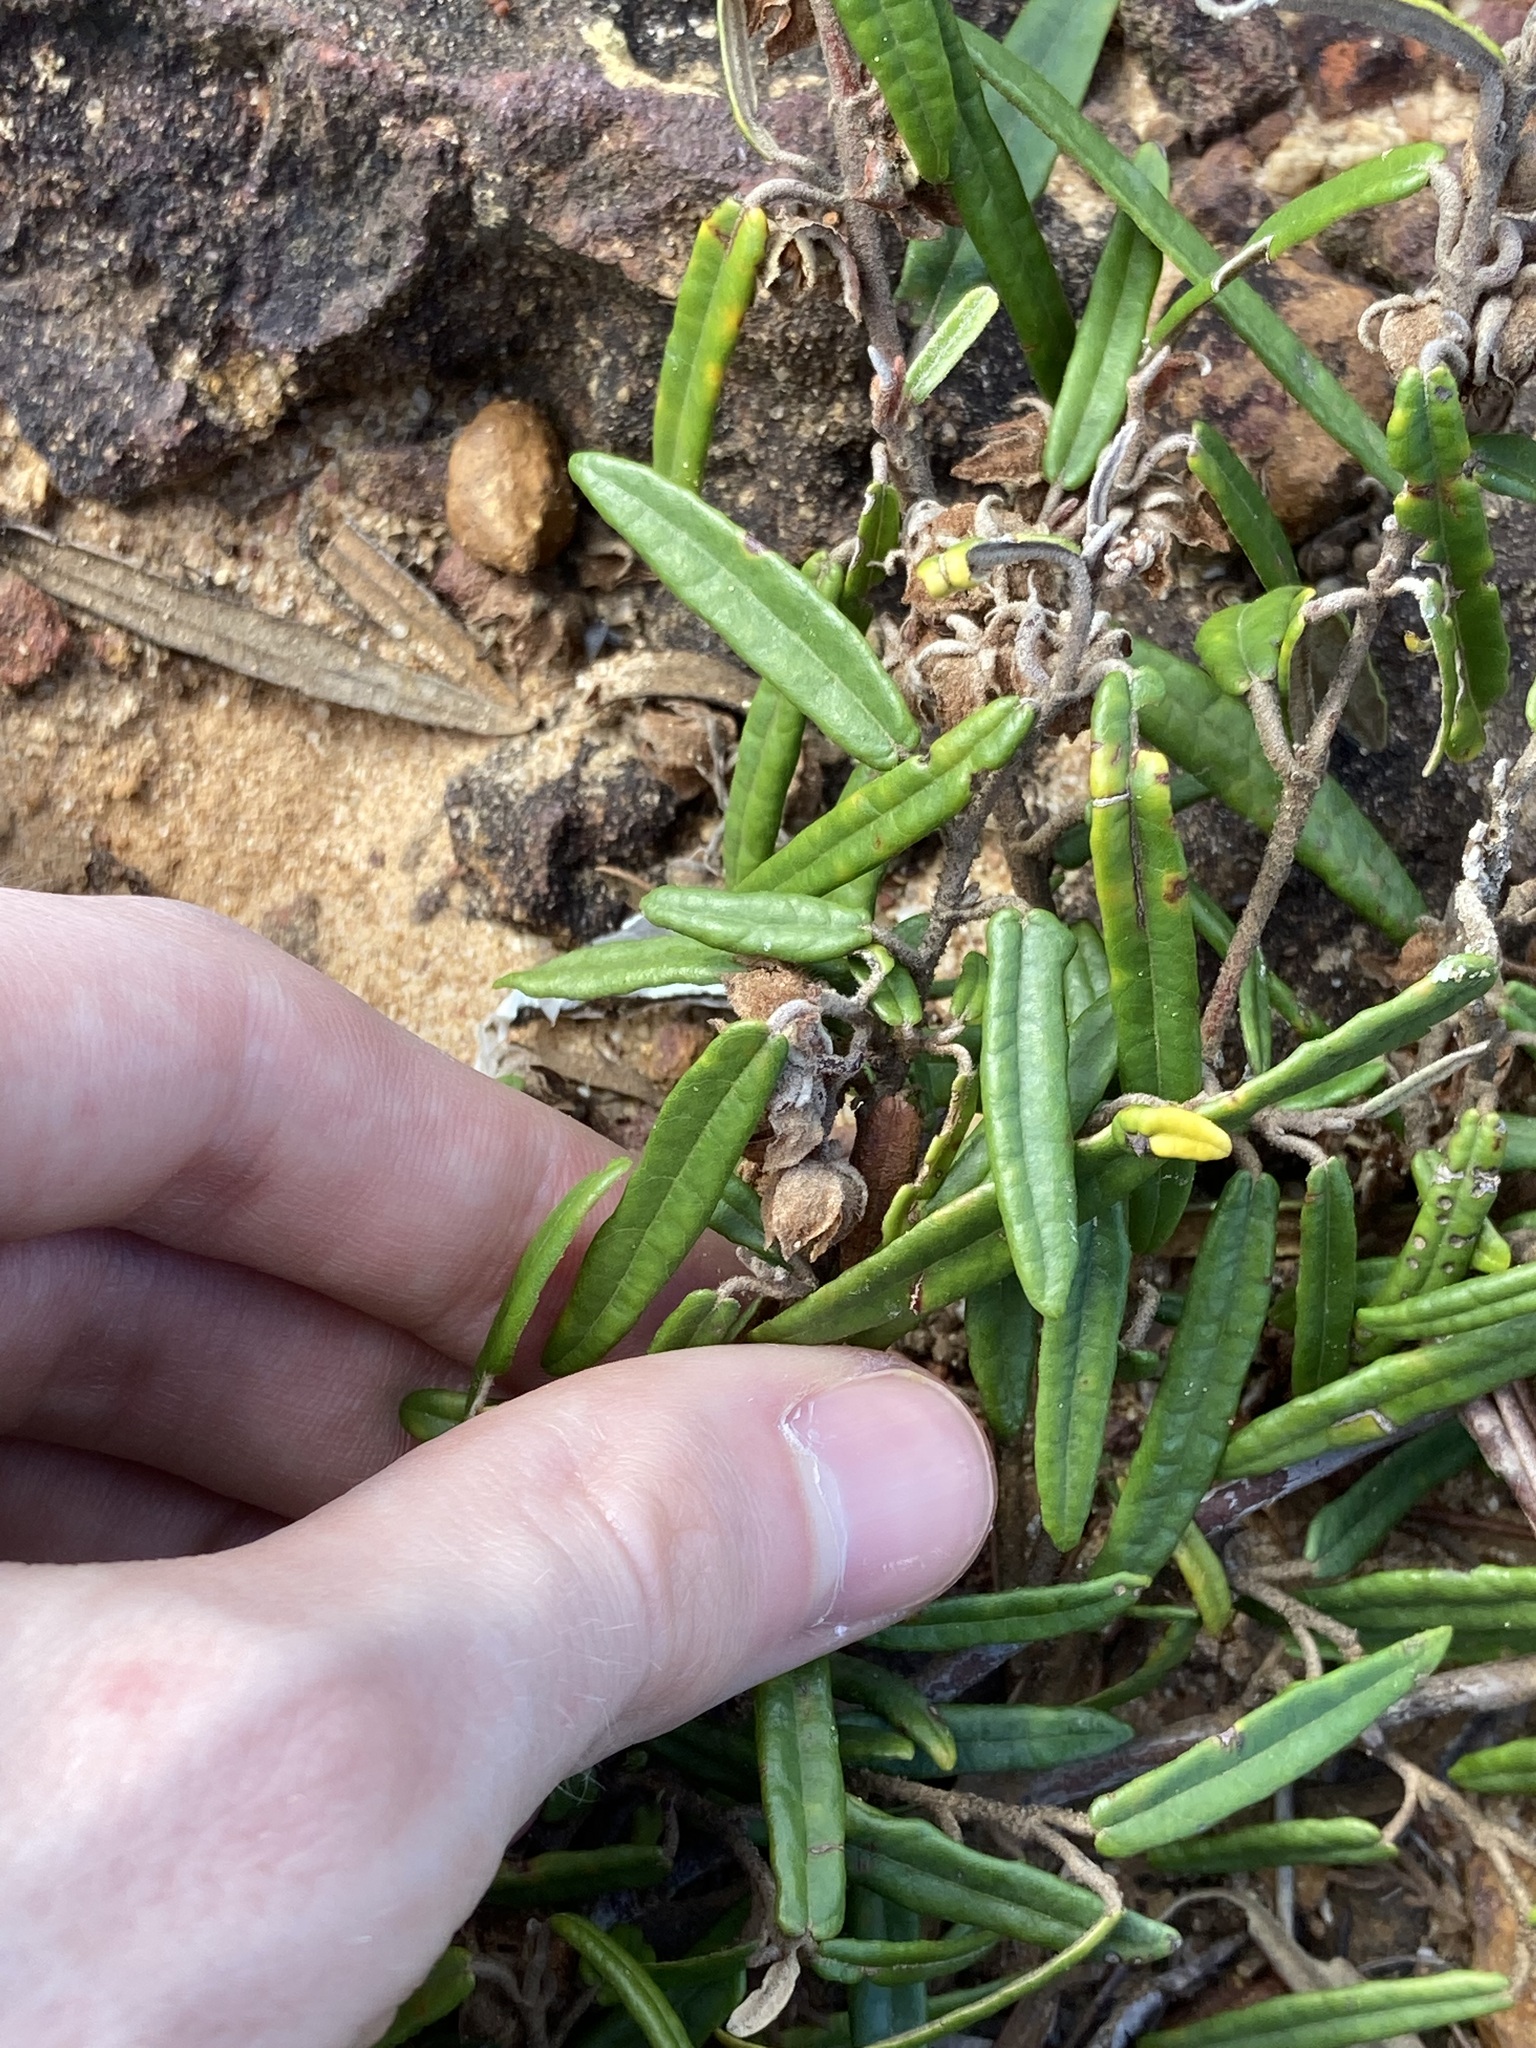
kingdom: Plantae
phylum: Tracheophyta
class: Magnoliopsida
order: Malvales
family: Malvaceae
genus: Lasiopetalum
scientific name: Lasiopetalum ferrugineum
